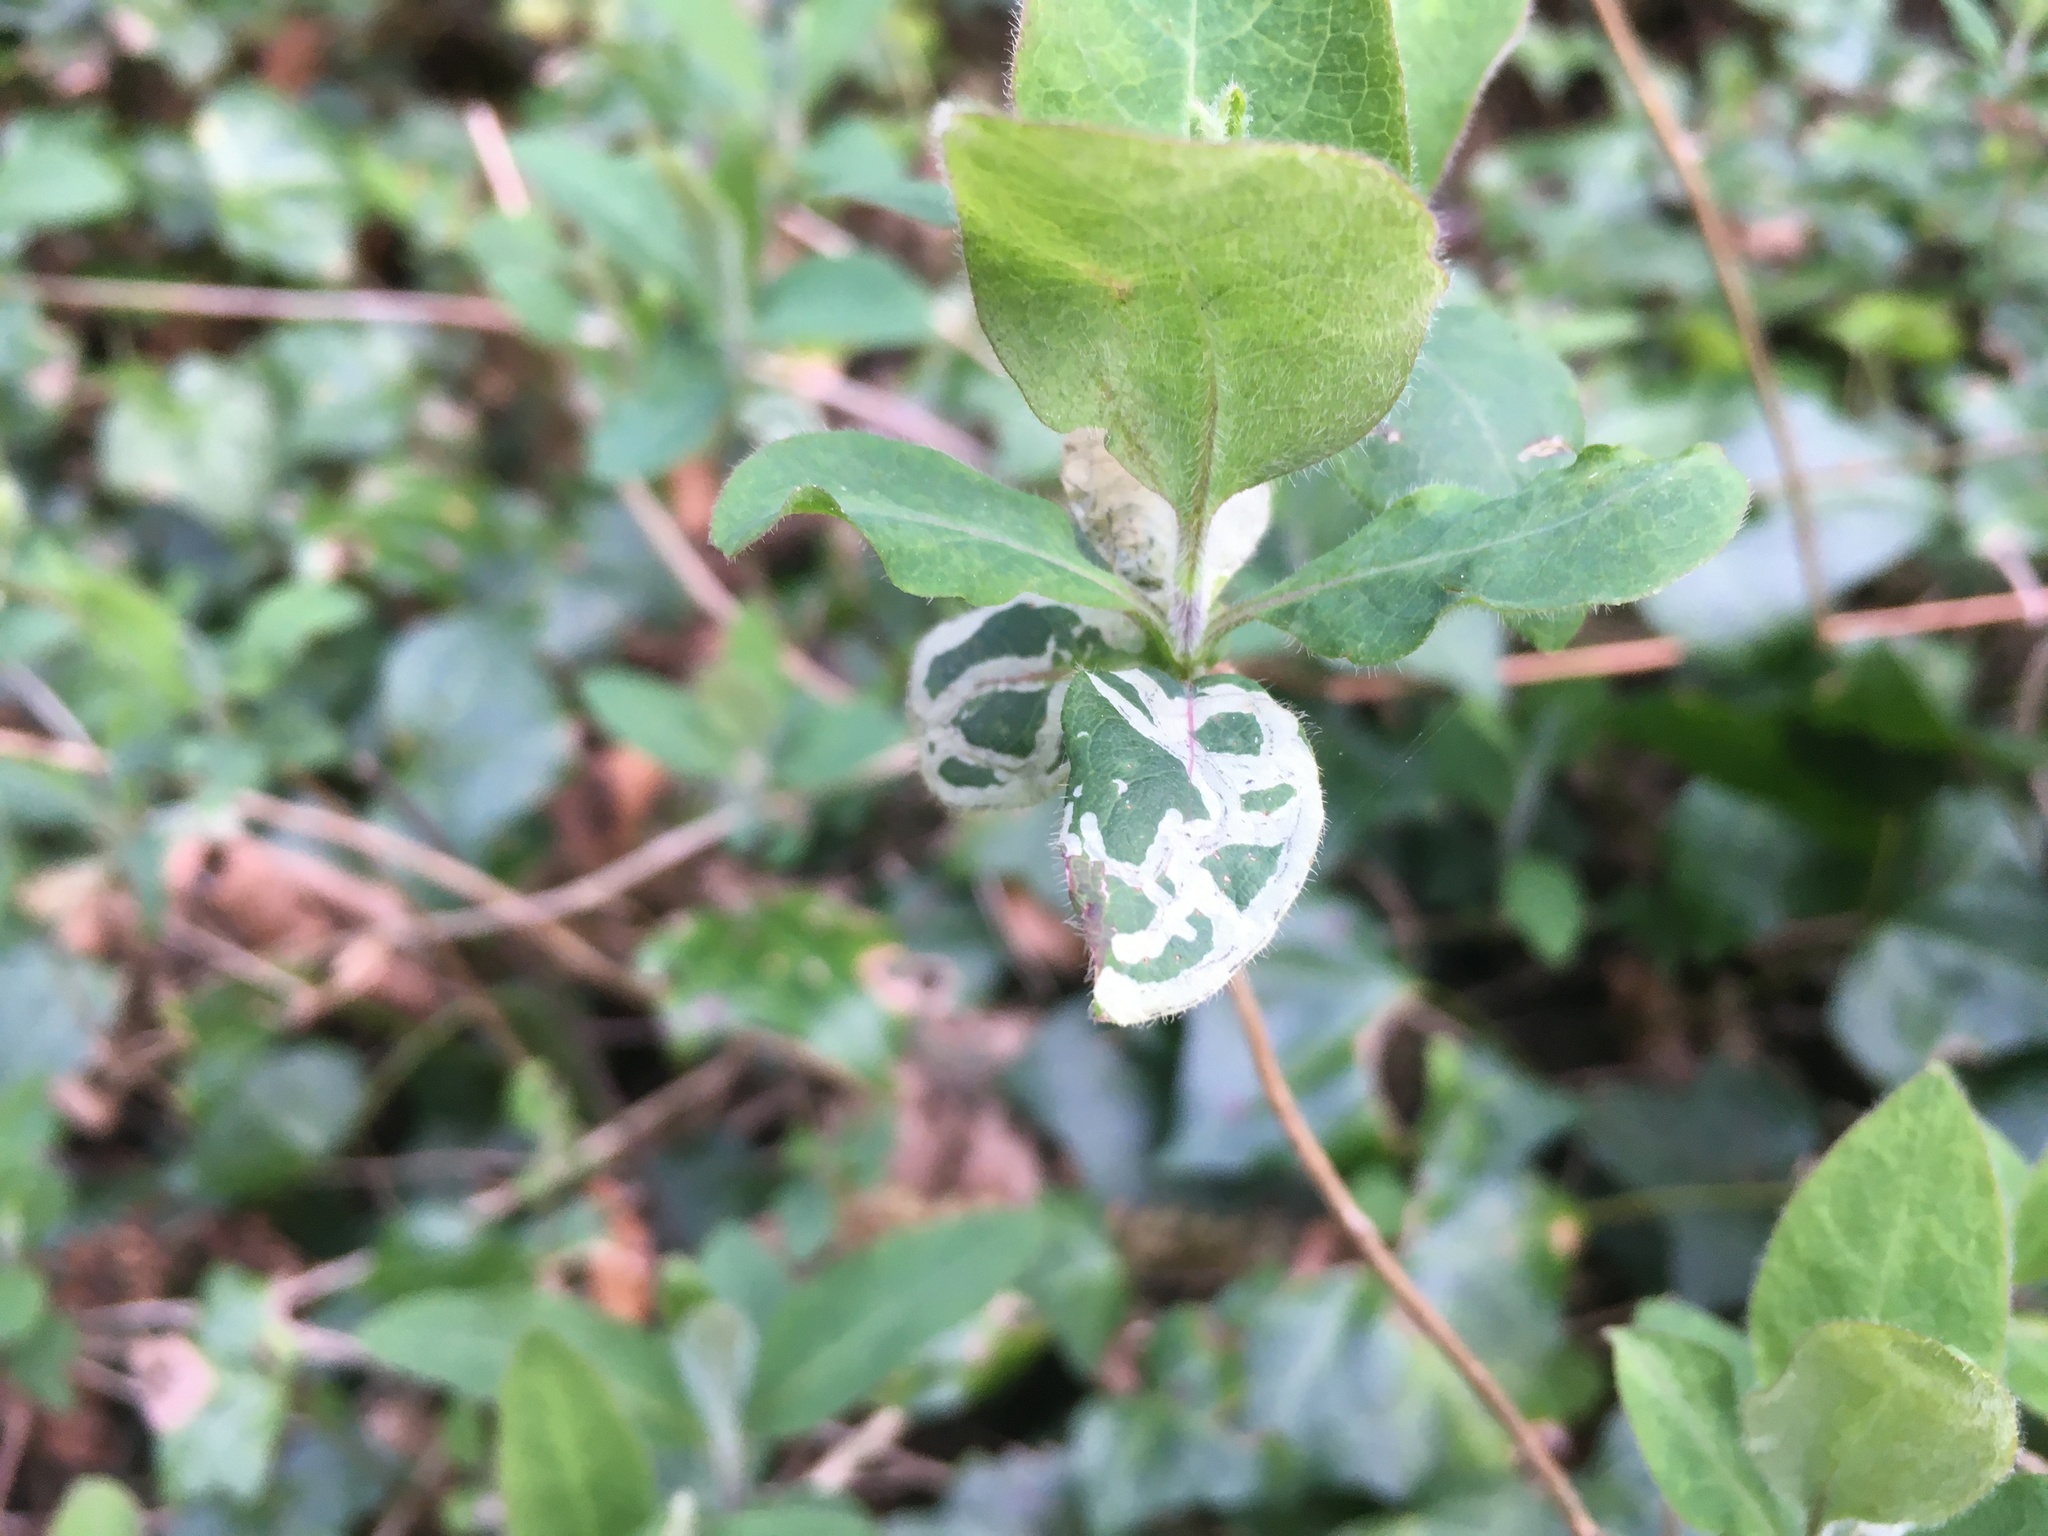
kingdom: Plantae
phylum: Tracheophyta
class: Magnoliopsida
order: Dipsacales
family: Caprifoliaceae
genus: Lonicera
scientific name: Lonicera periclymenum
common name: European honeysuckle
